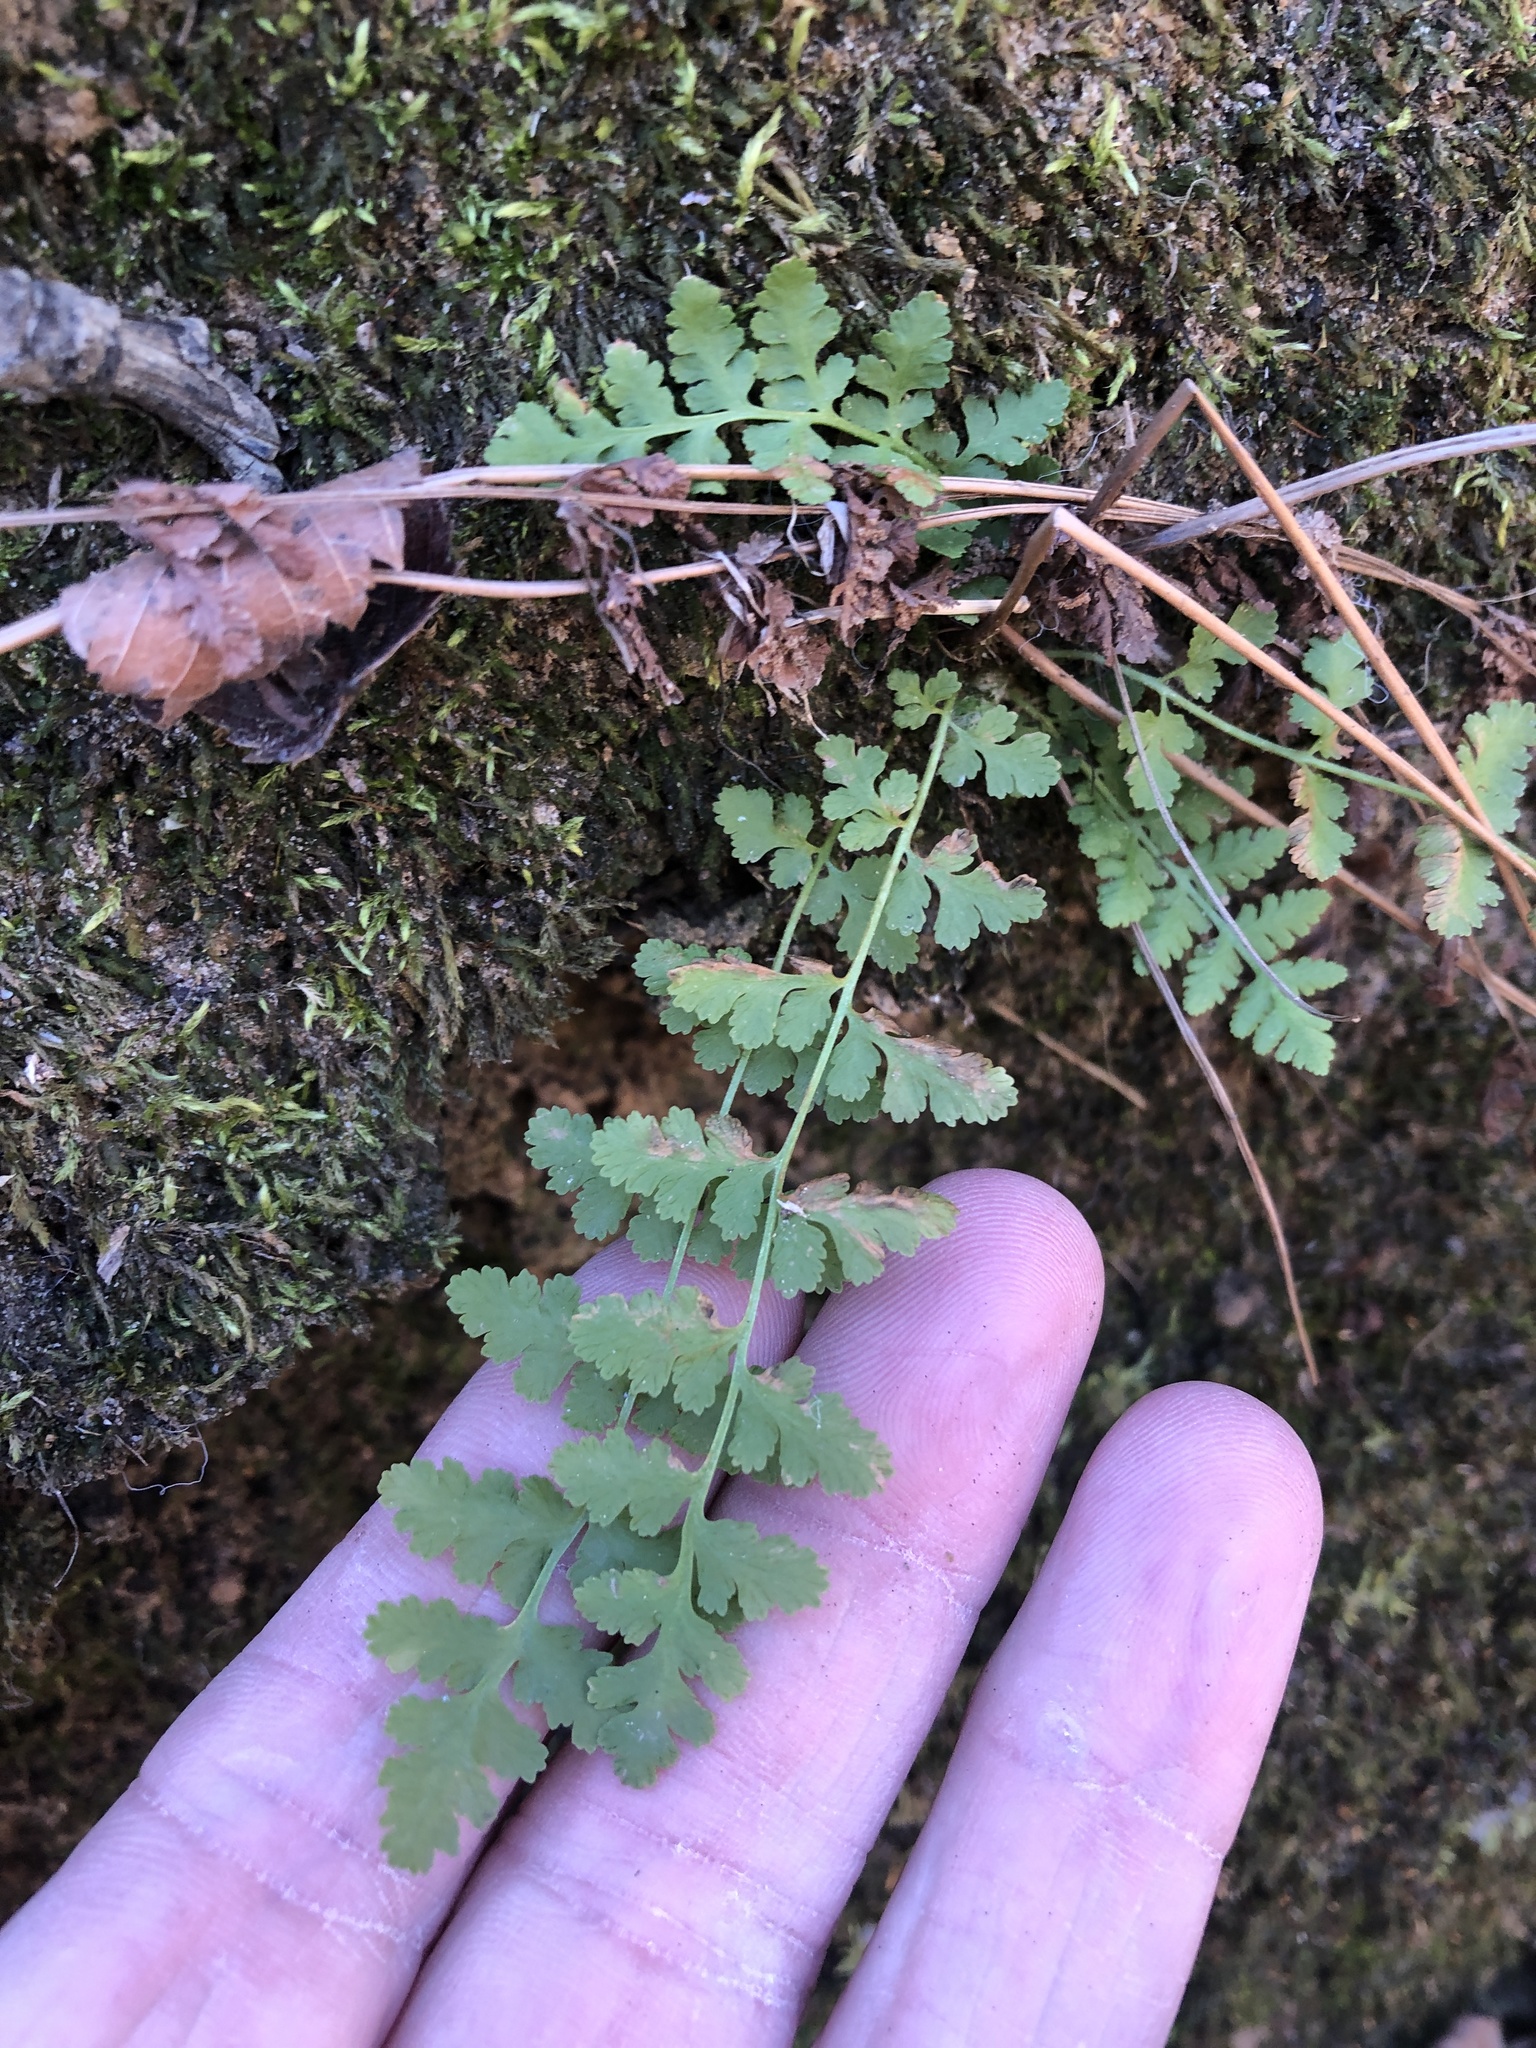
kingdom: Plantae
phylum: Tracheophyta
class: Polypodiopsida
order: Polypodiales
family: Woodsiaceae
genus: Physematium
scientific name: Physematium obtusum
